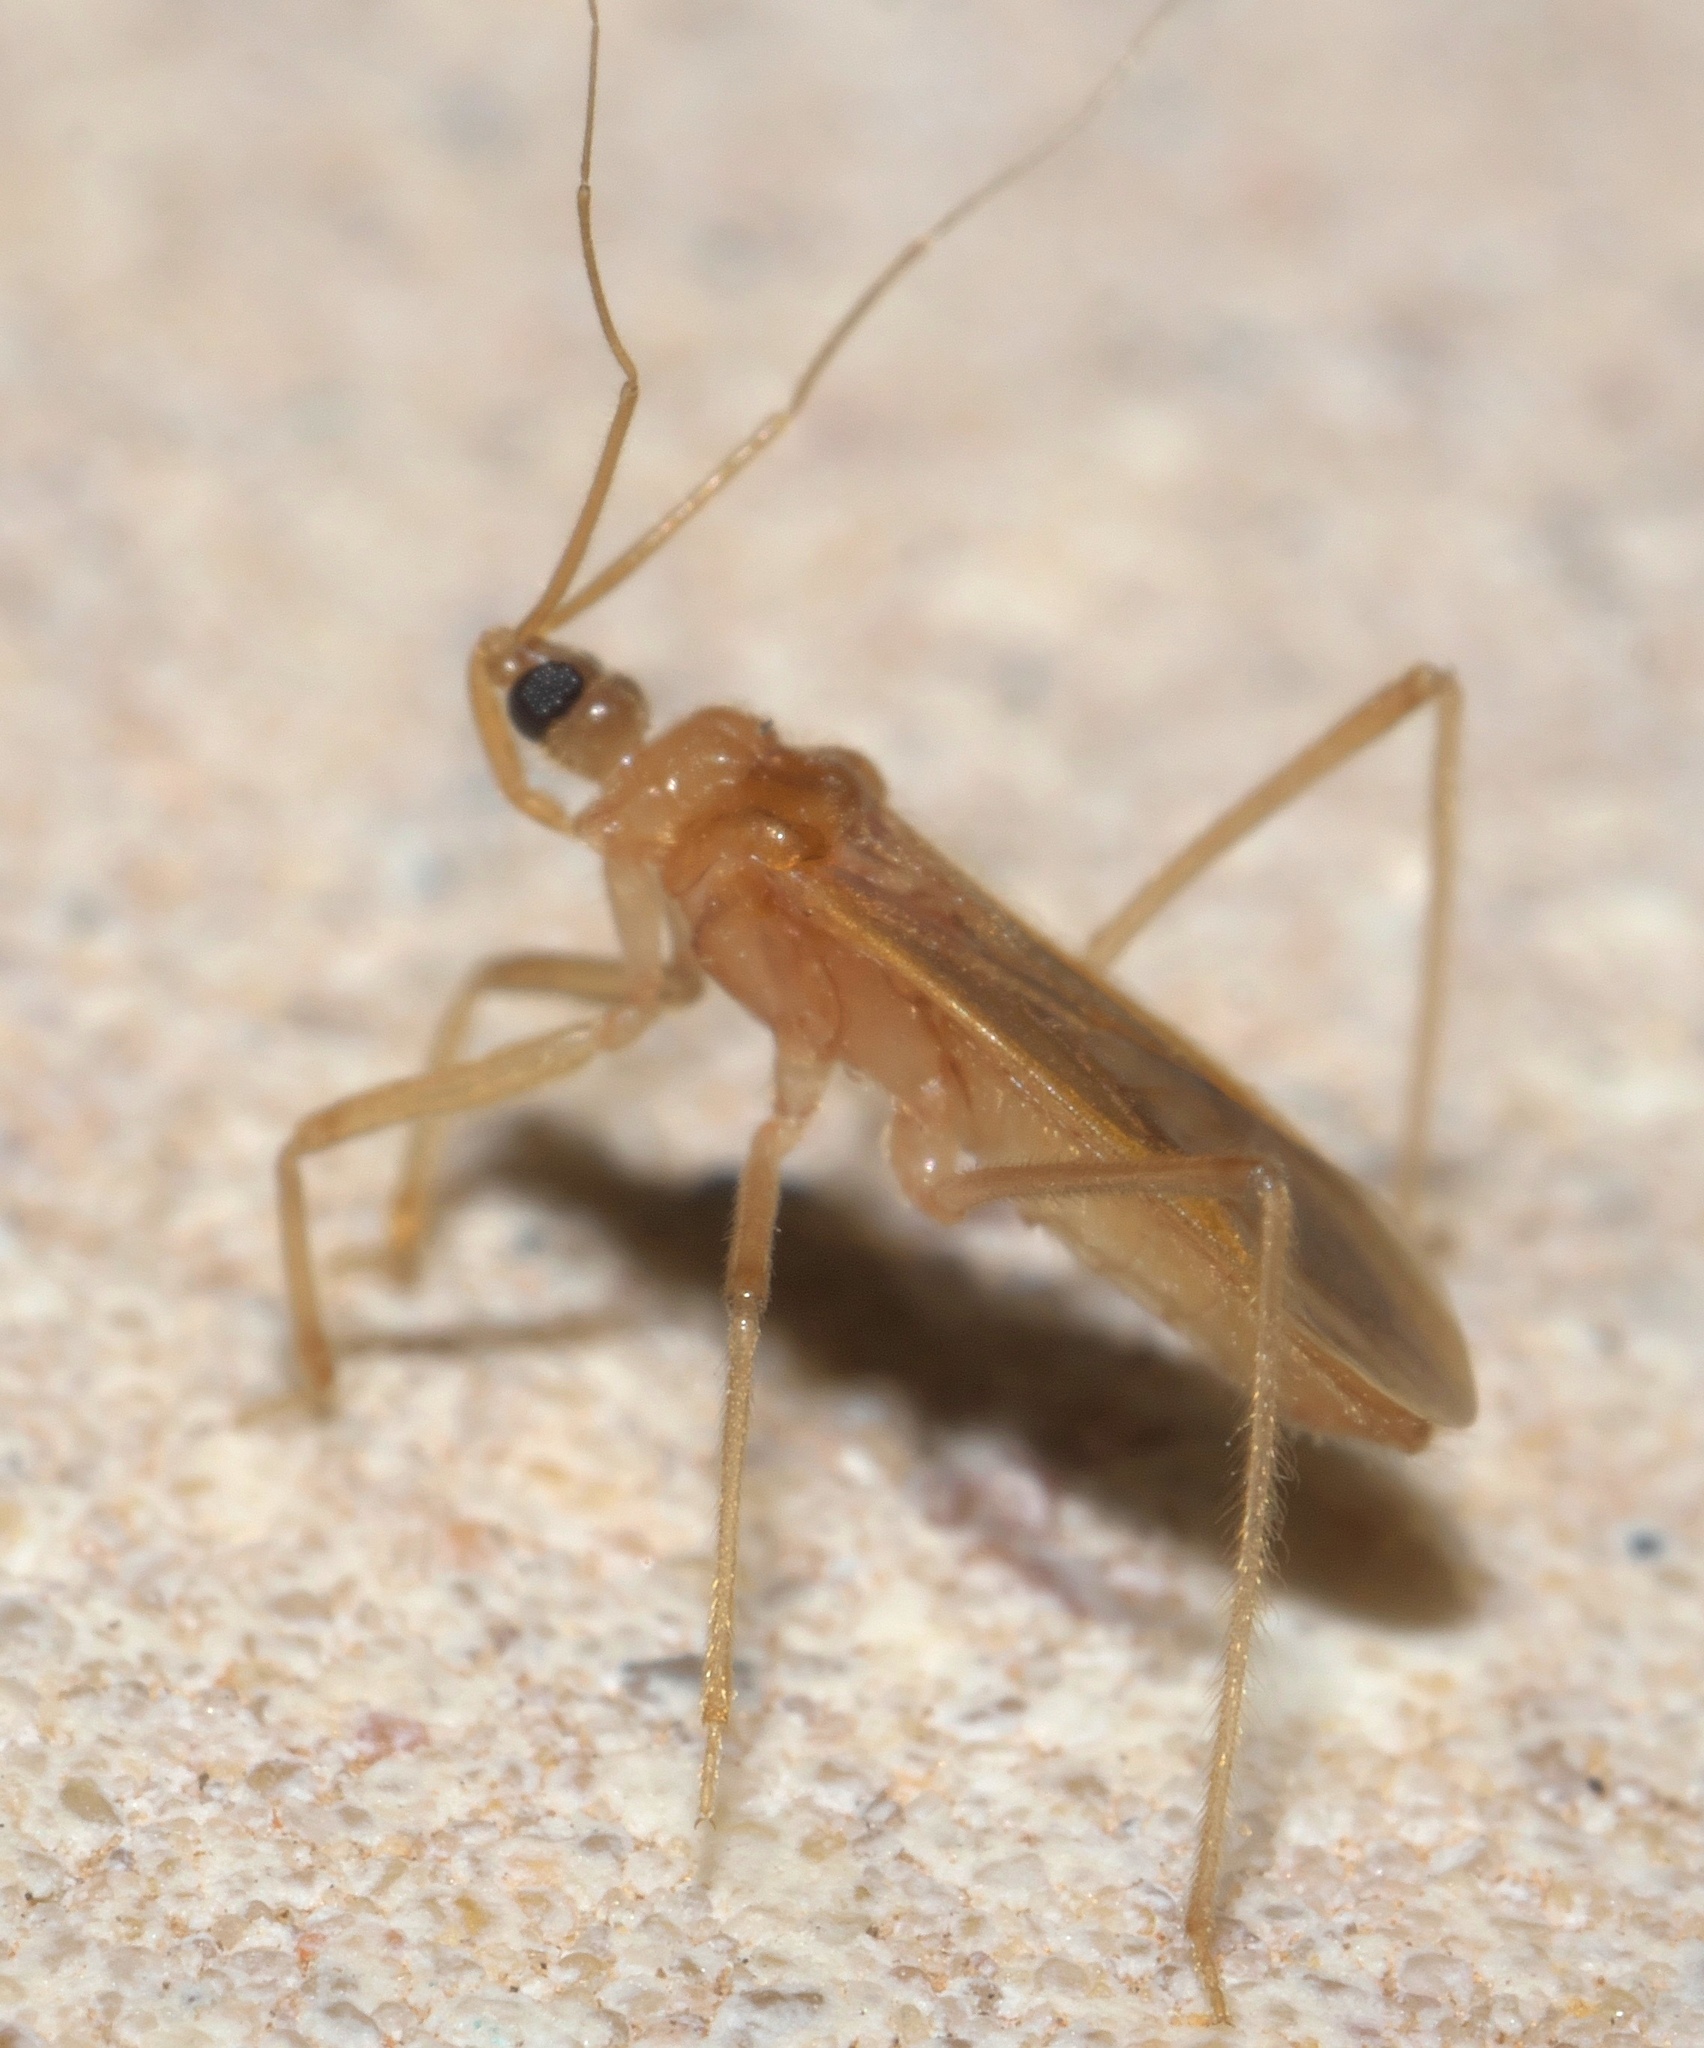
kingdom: Animalia
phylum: Arthropoda
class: Insecta
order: Hemiptera
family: Reduviidae
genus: Oncerotrachelus
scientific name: Oncerotrachelus pallidus
